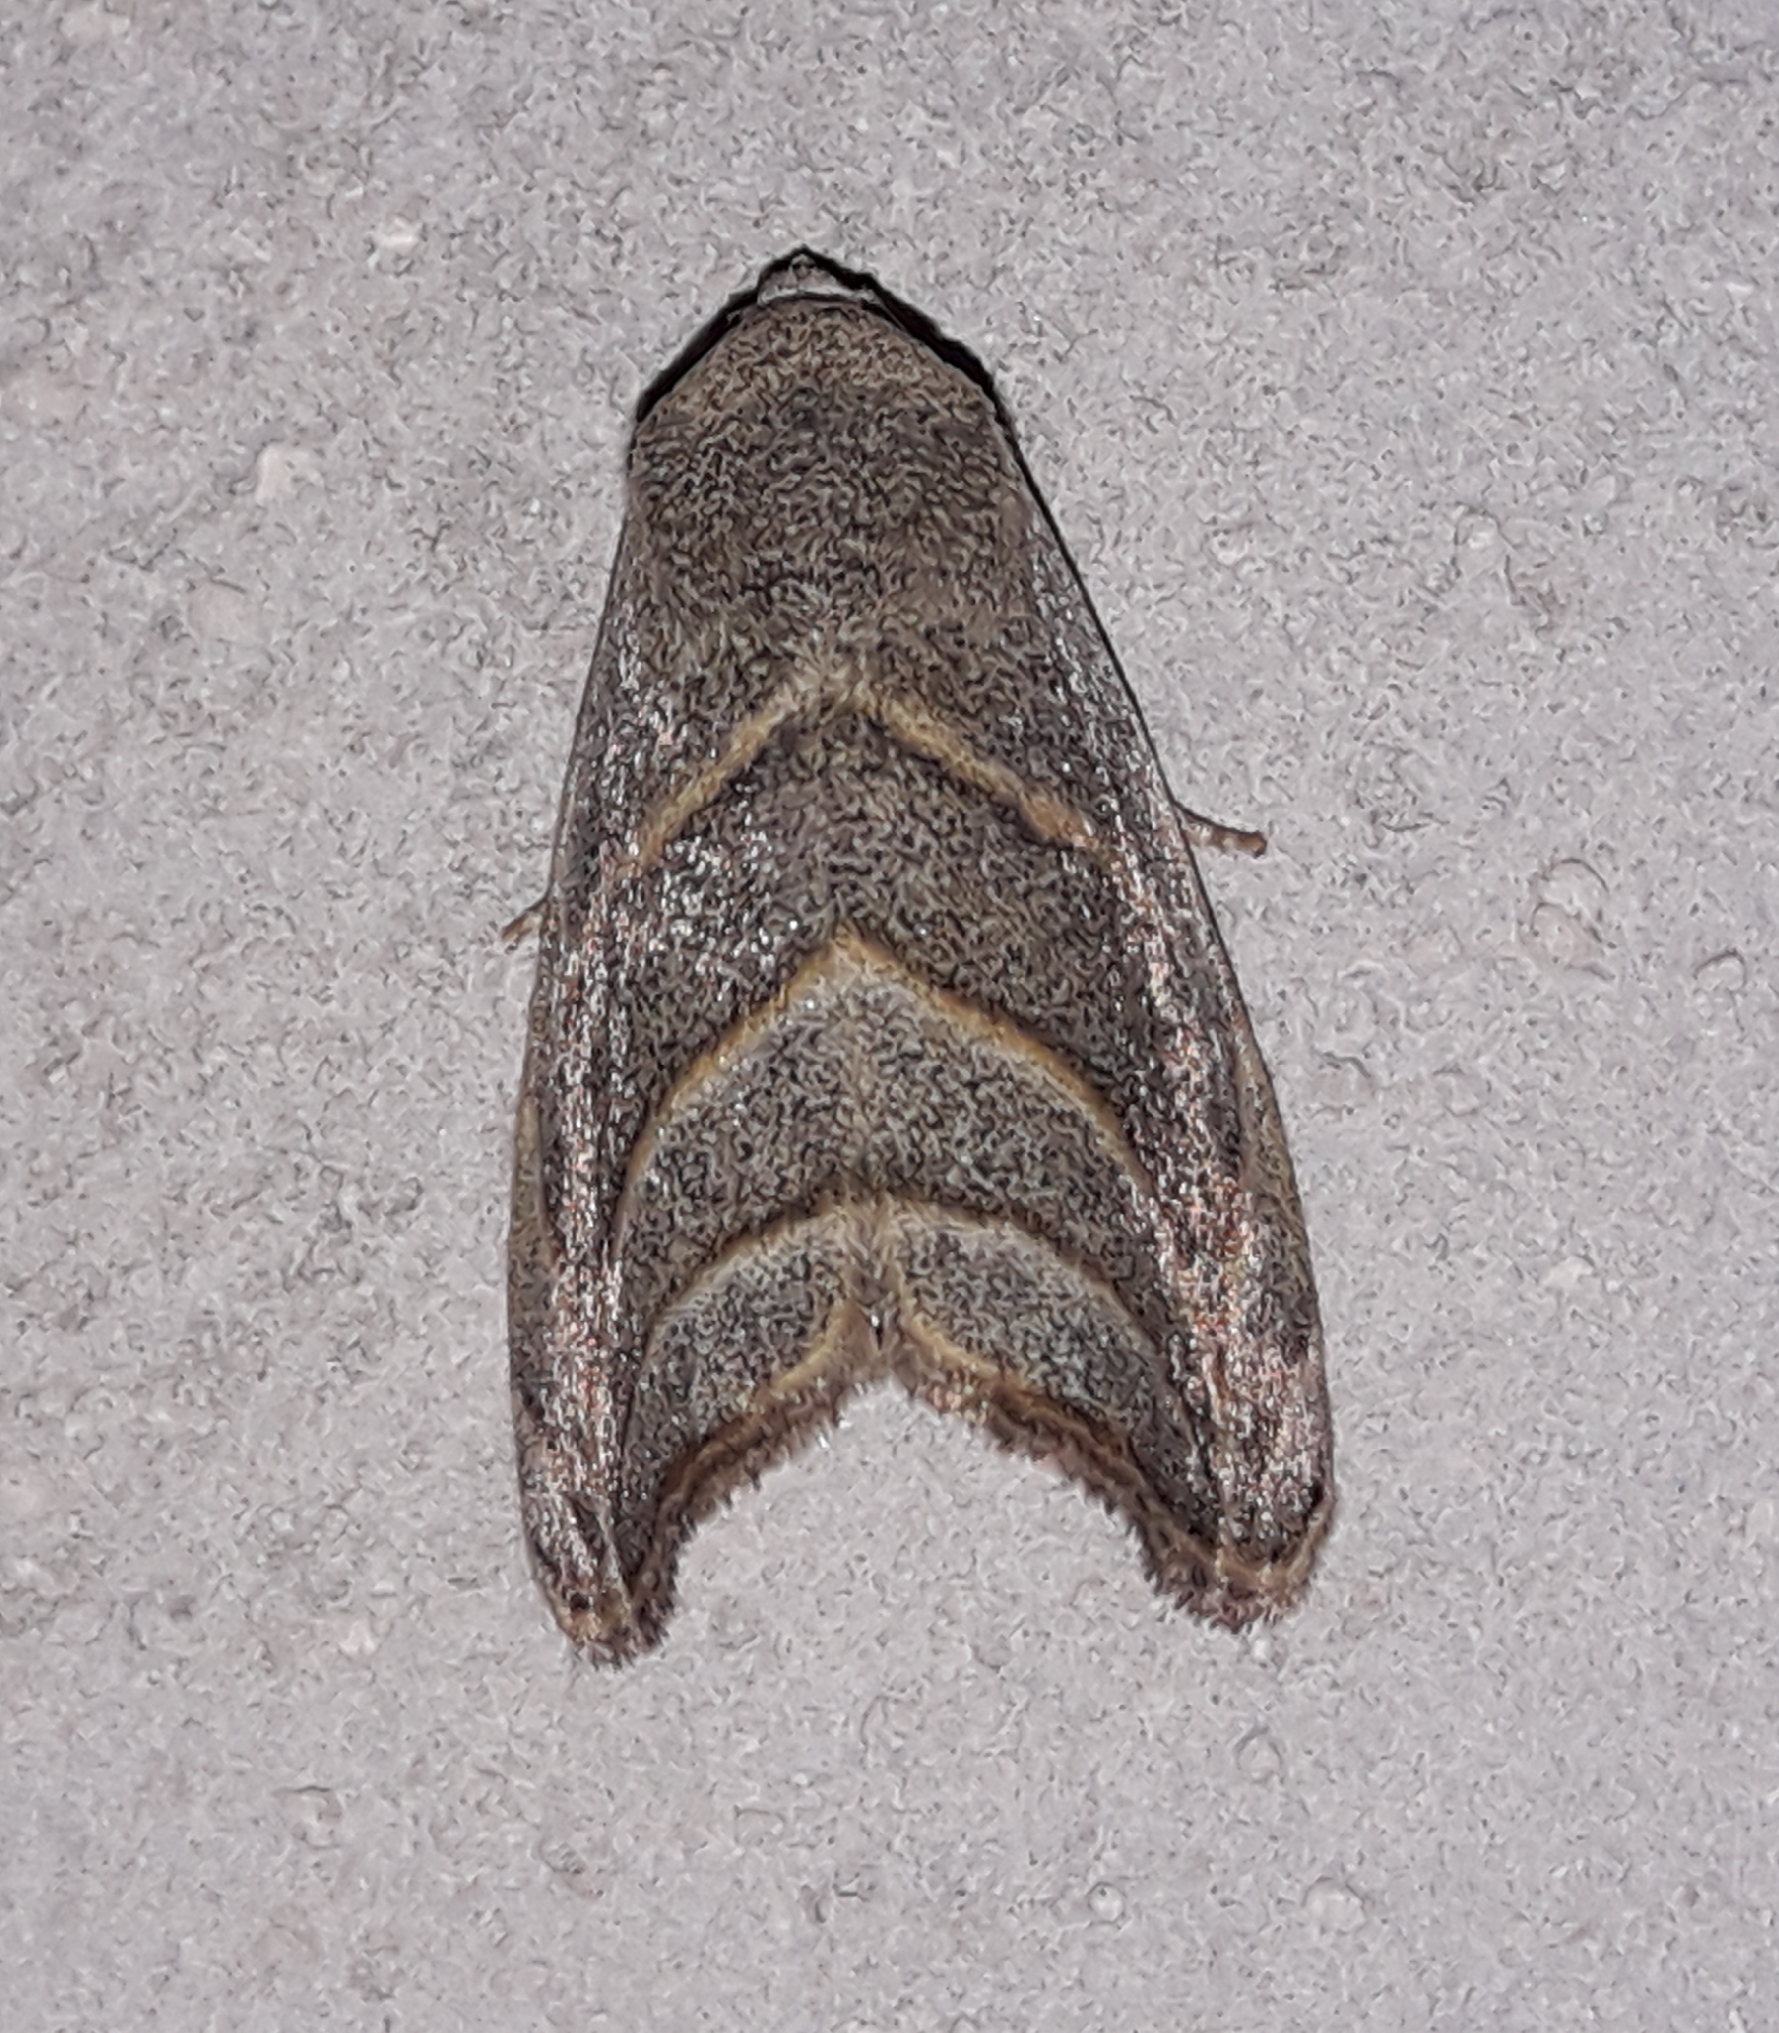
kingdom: Animalia
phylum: Arthropoda
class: Insecta
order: Lepidoptera
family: Noctuidae
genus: Bagisara
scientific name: Bagisara laverna
